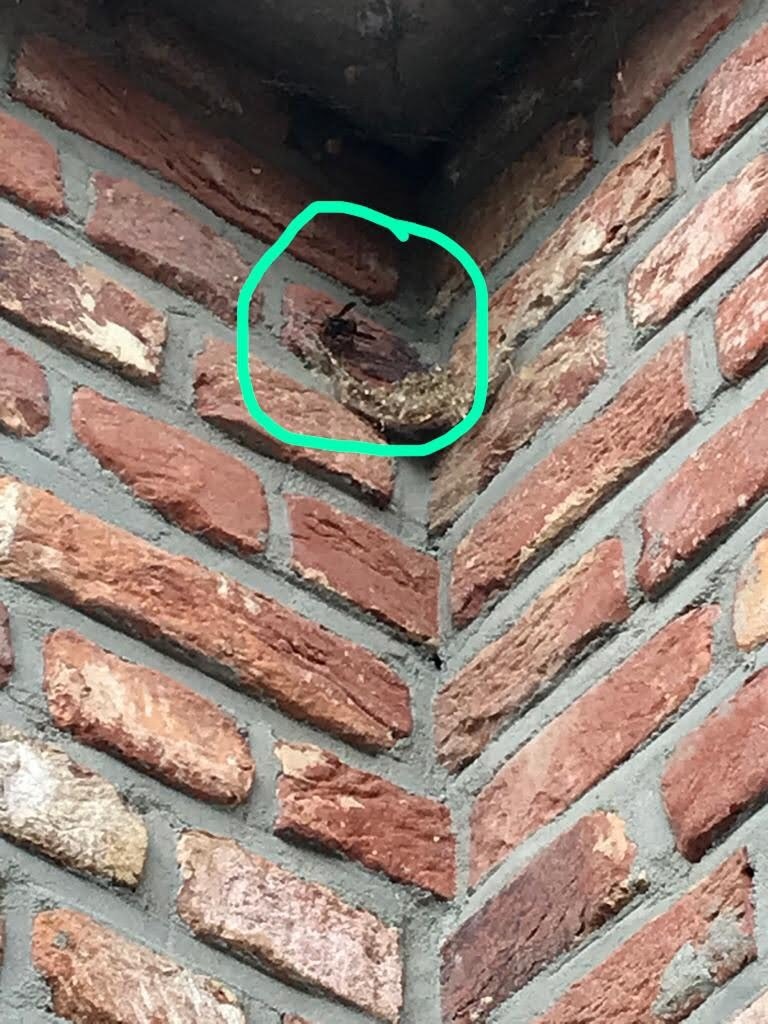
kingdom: Animalia
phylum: Arthropoda
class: Insecta
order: Hymenoptera
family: Vespidae
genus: Vespa
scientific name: Vespa velutina
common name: Asian hornet
